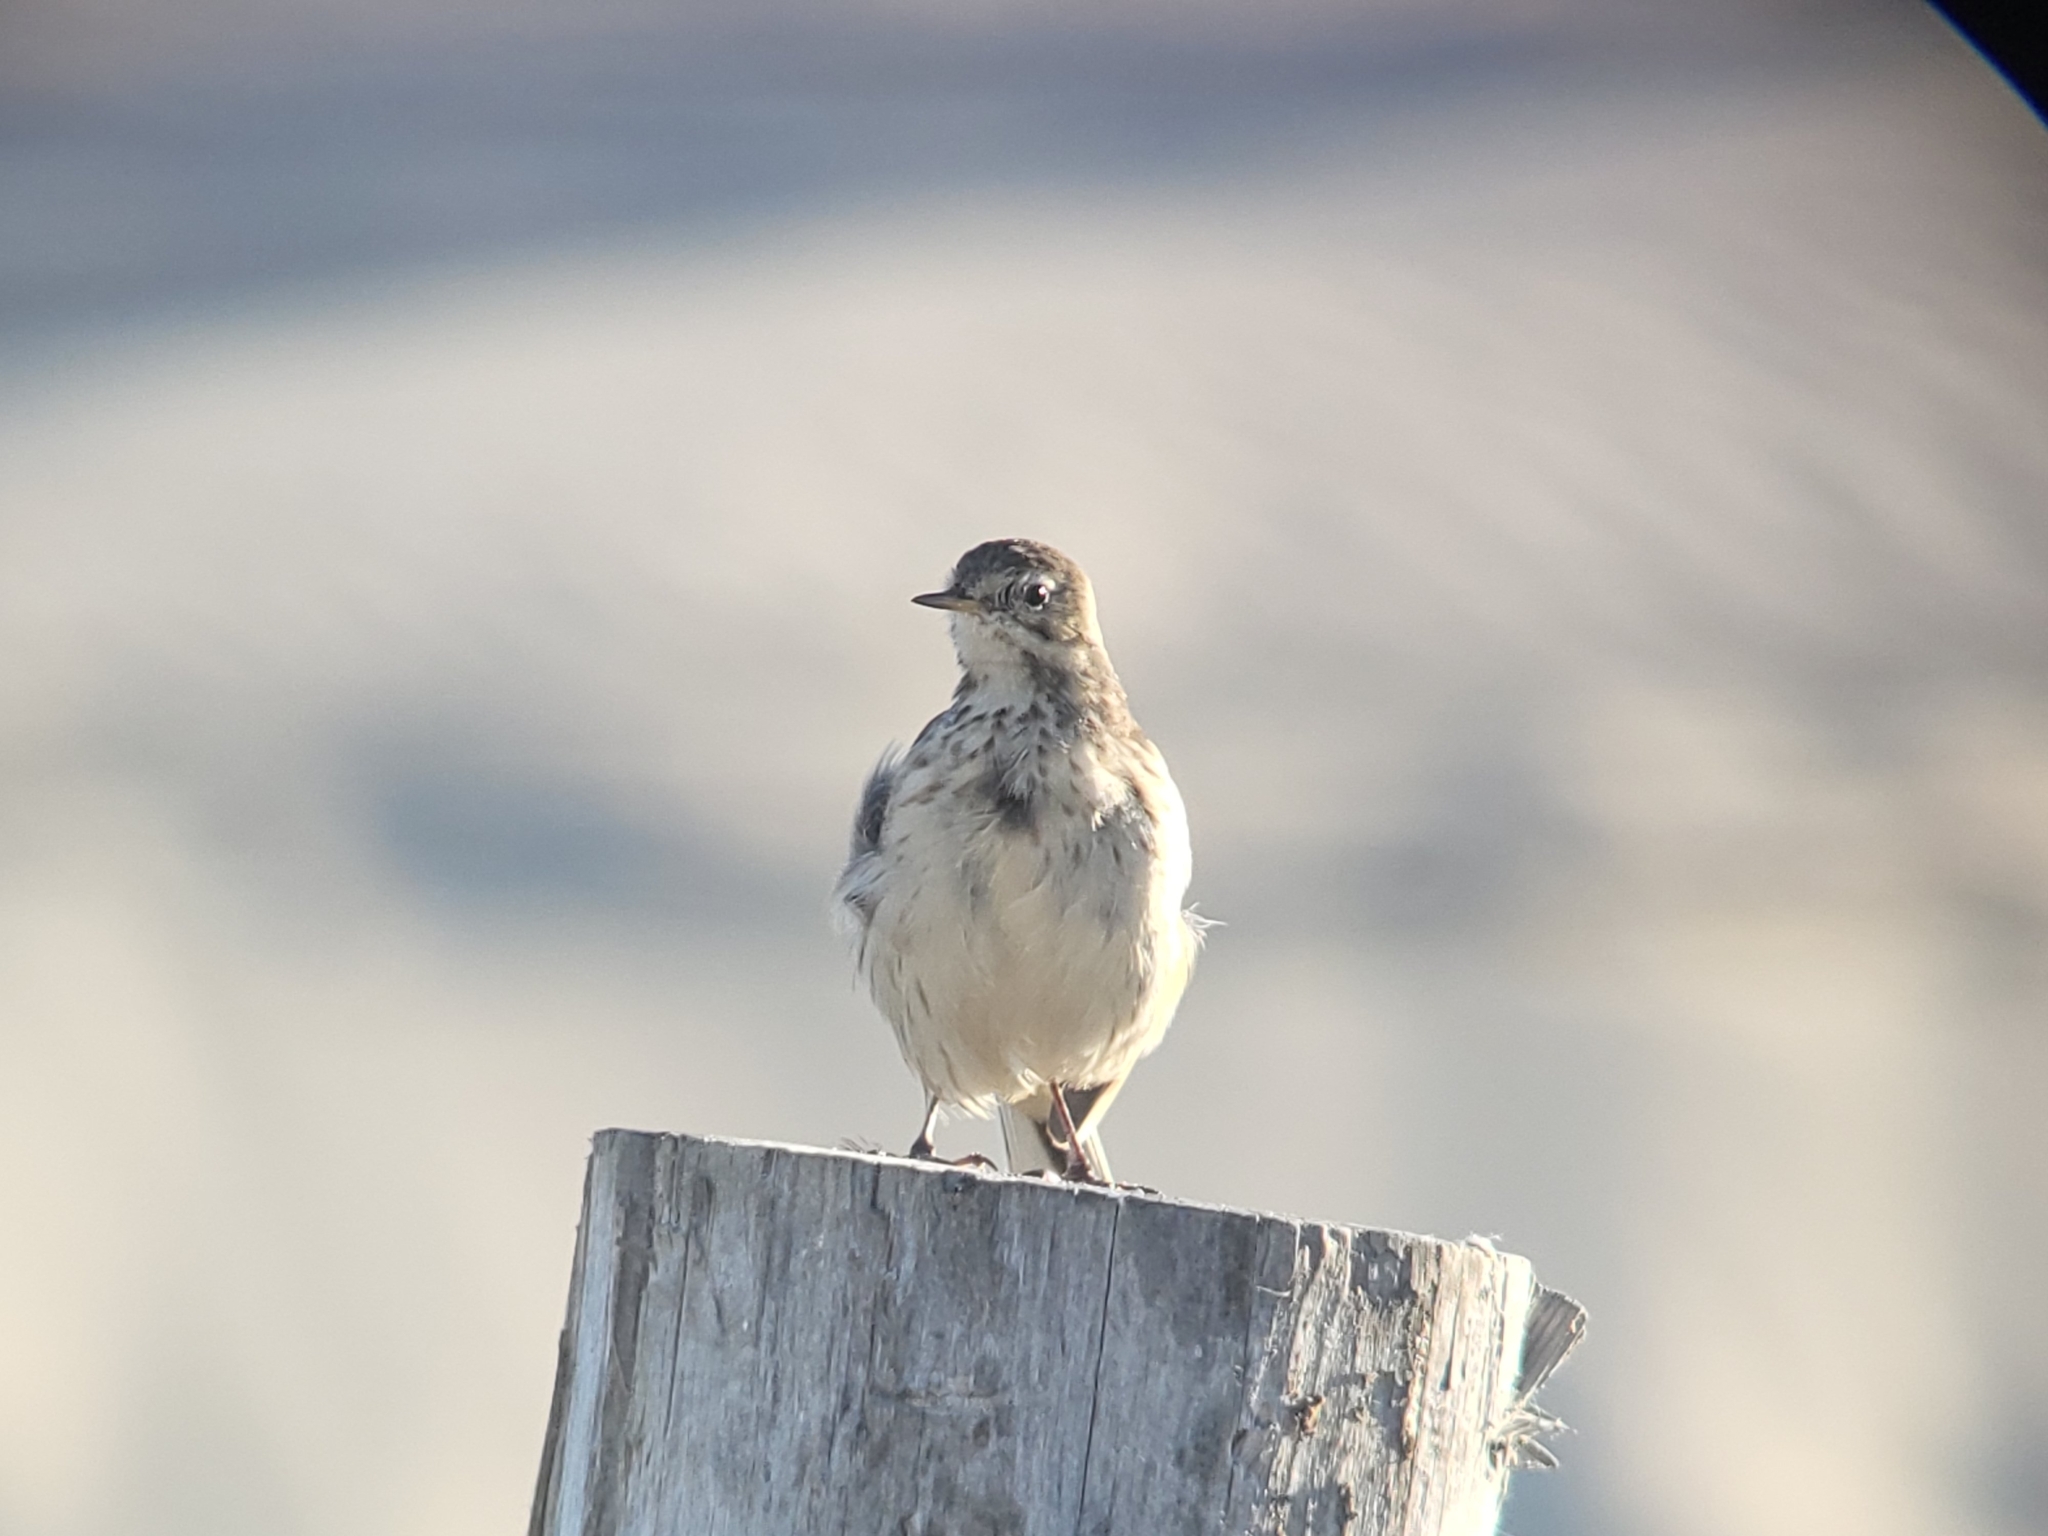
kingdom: Animalia
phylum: Chordata
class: Aves
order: Passeriformes
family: Motacillidae
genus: Anthus
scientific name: Anthus rubescens
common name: Buff-bellied pipit
